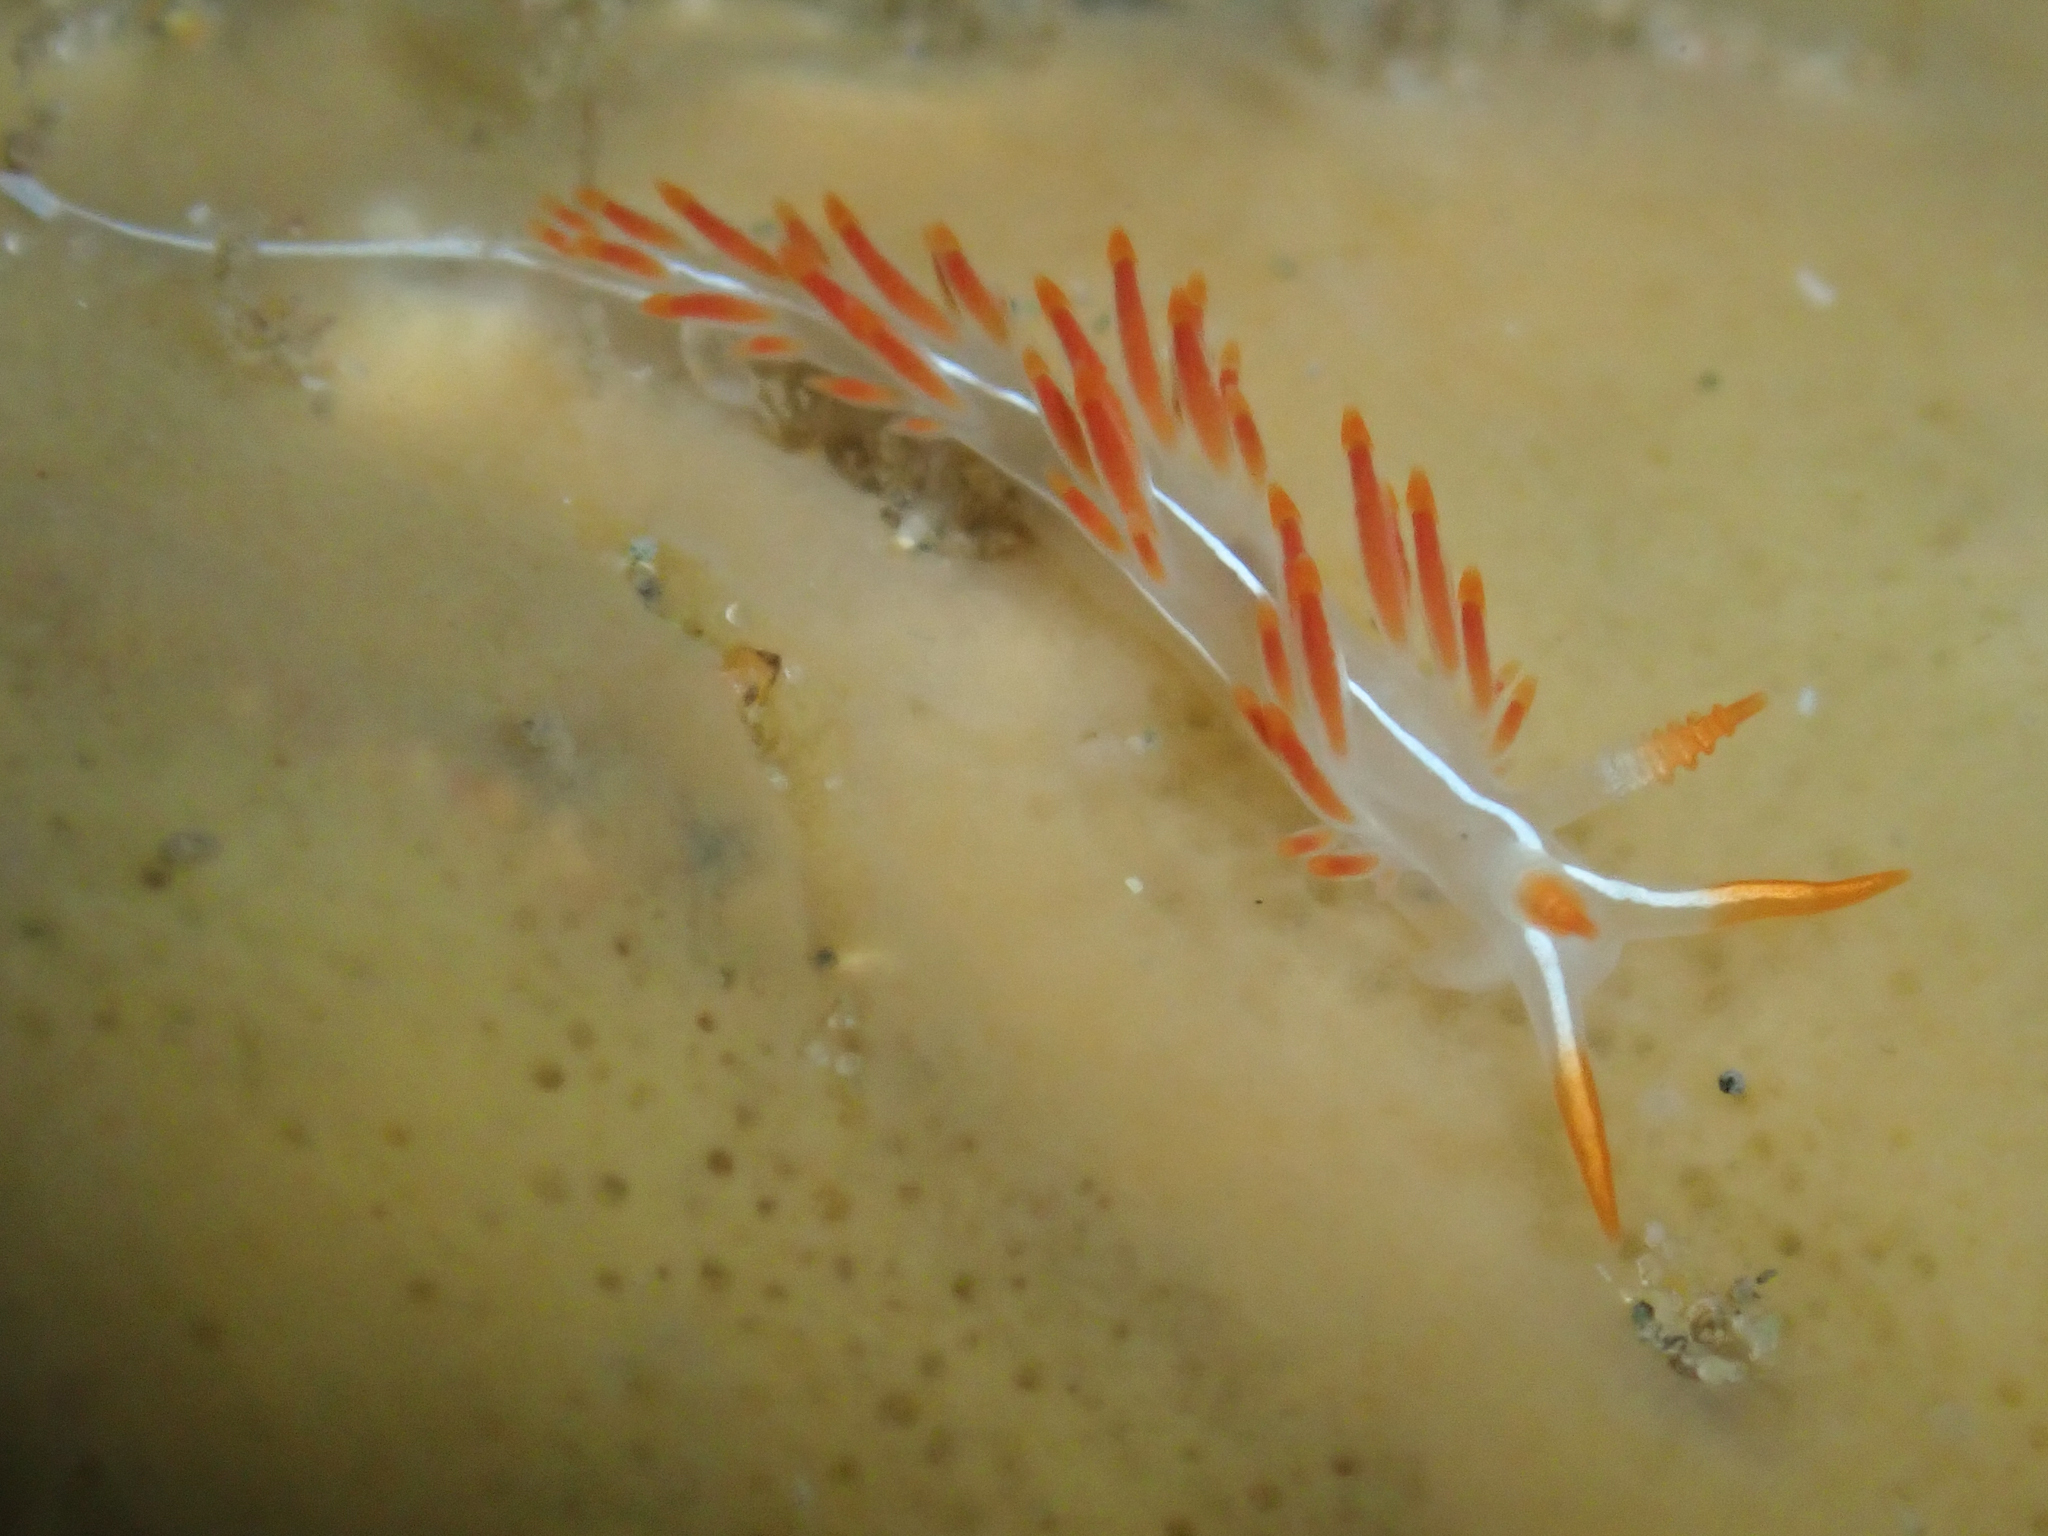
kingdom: Animalia
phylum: Mollusca
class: Gastropoda
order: Nudibranchia
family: Coryphellidae
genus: Coryphella
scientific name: Coryphella trilineata
